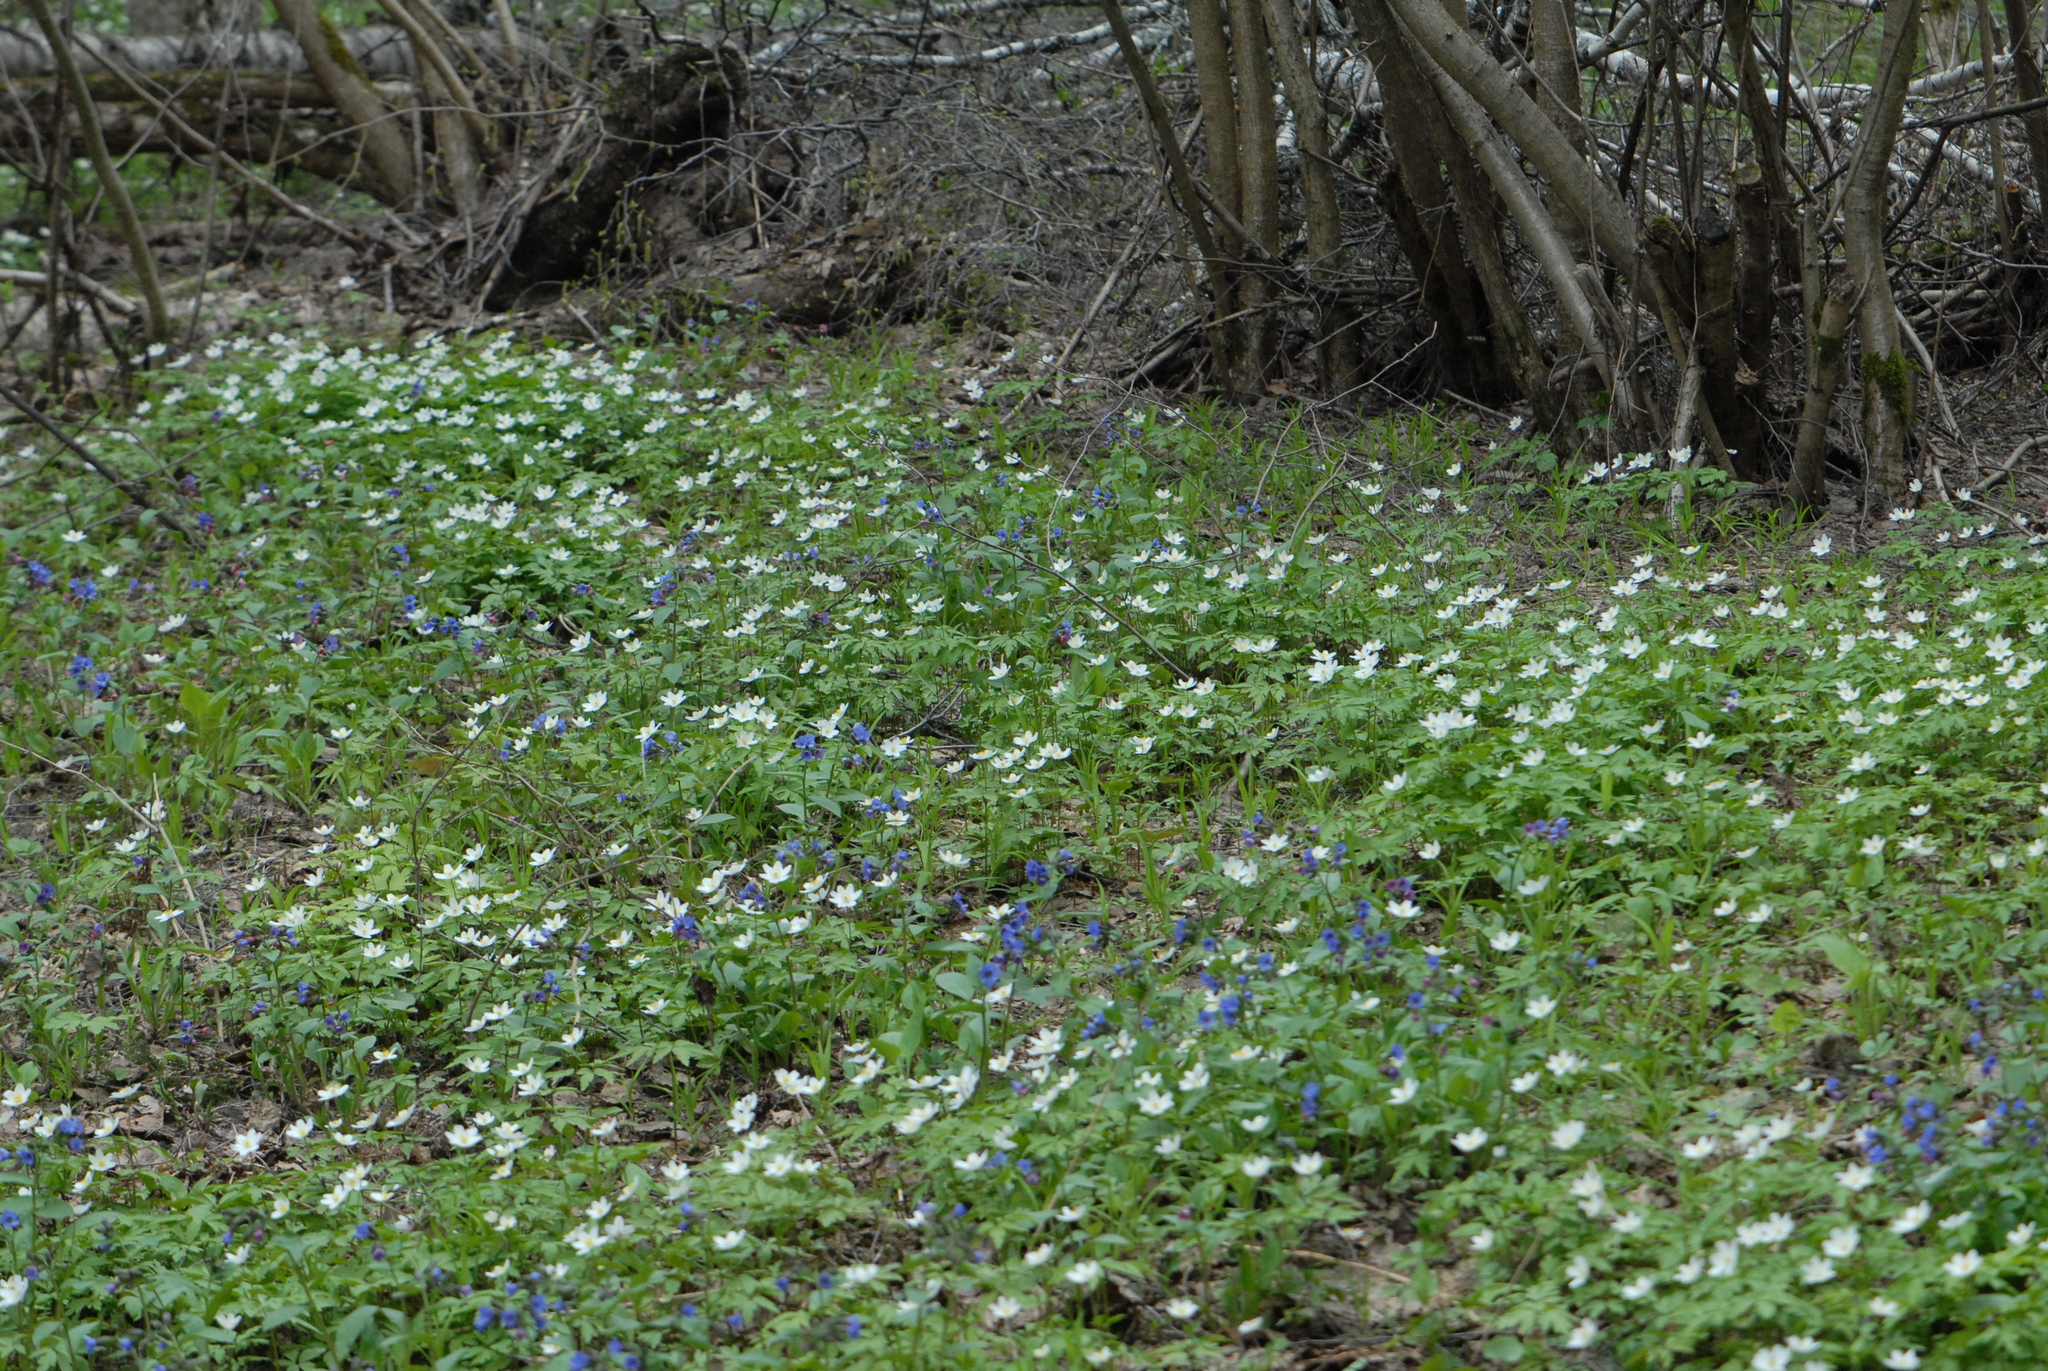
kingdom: Plantae
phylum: Tracheophyta
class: Magnoliopsida
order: Ranunculales
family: Ranunculaceae
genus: Anemone
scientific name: Anemone nemorosa
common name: Wood anemone
